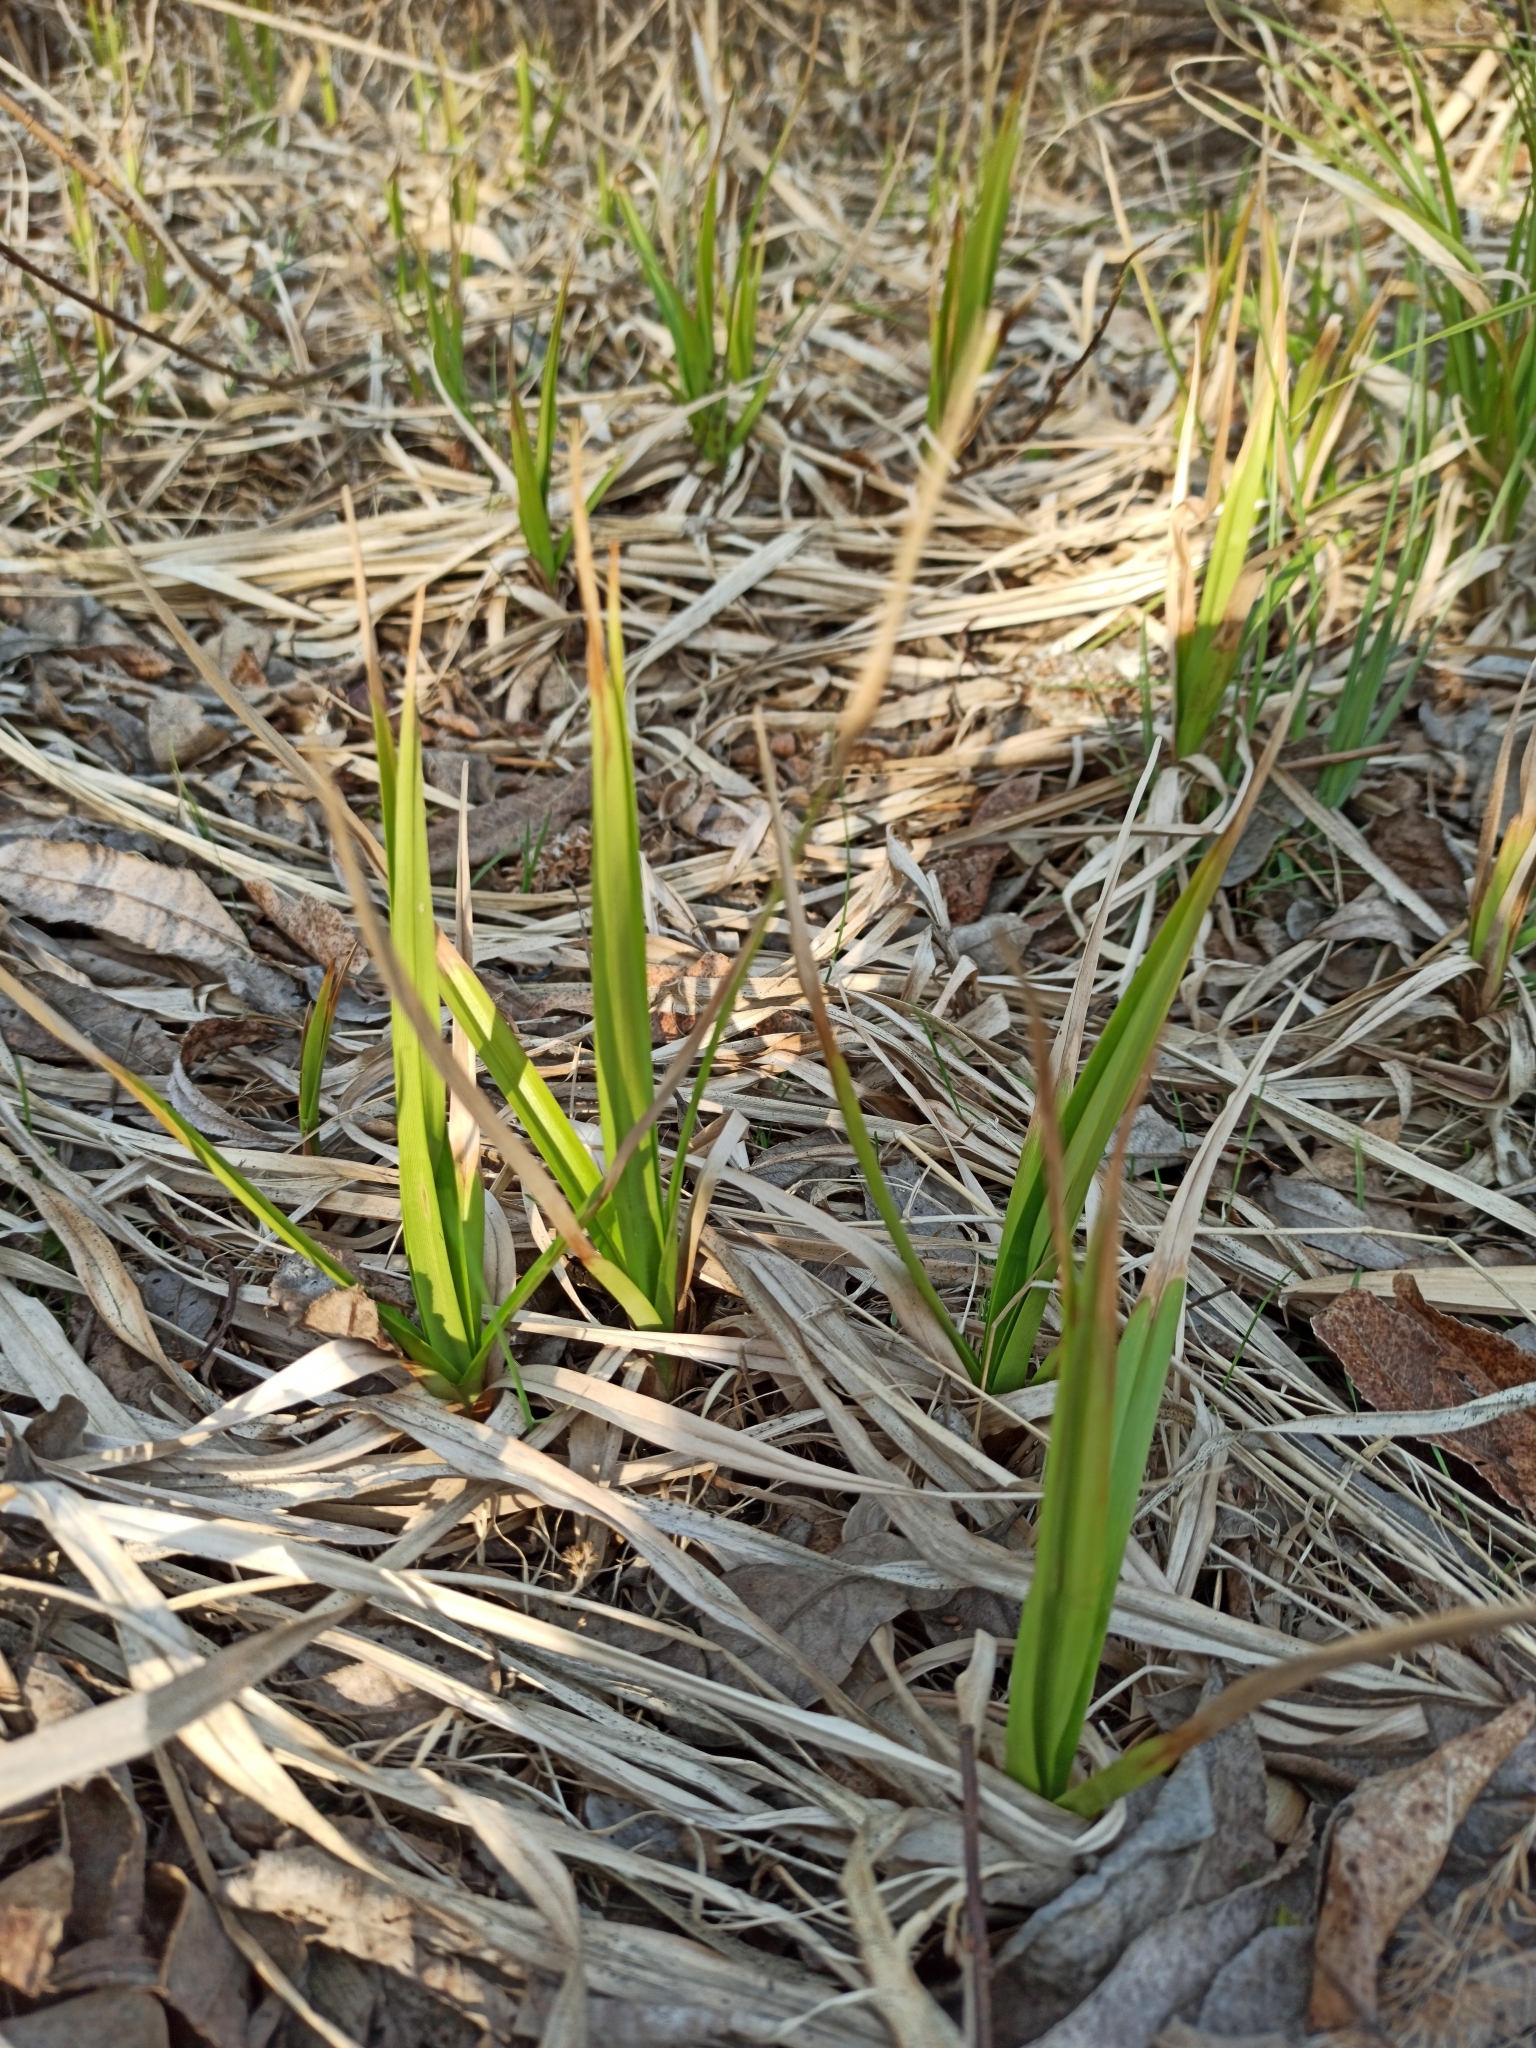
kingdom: Plantae
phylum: Tracheophyta
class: Liliopsida
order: Poales
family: Cyperaceae
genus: Scirpus
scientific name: Scirpus sylvaticus
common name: Wood club-rush
